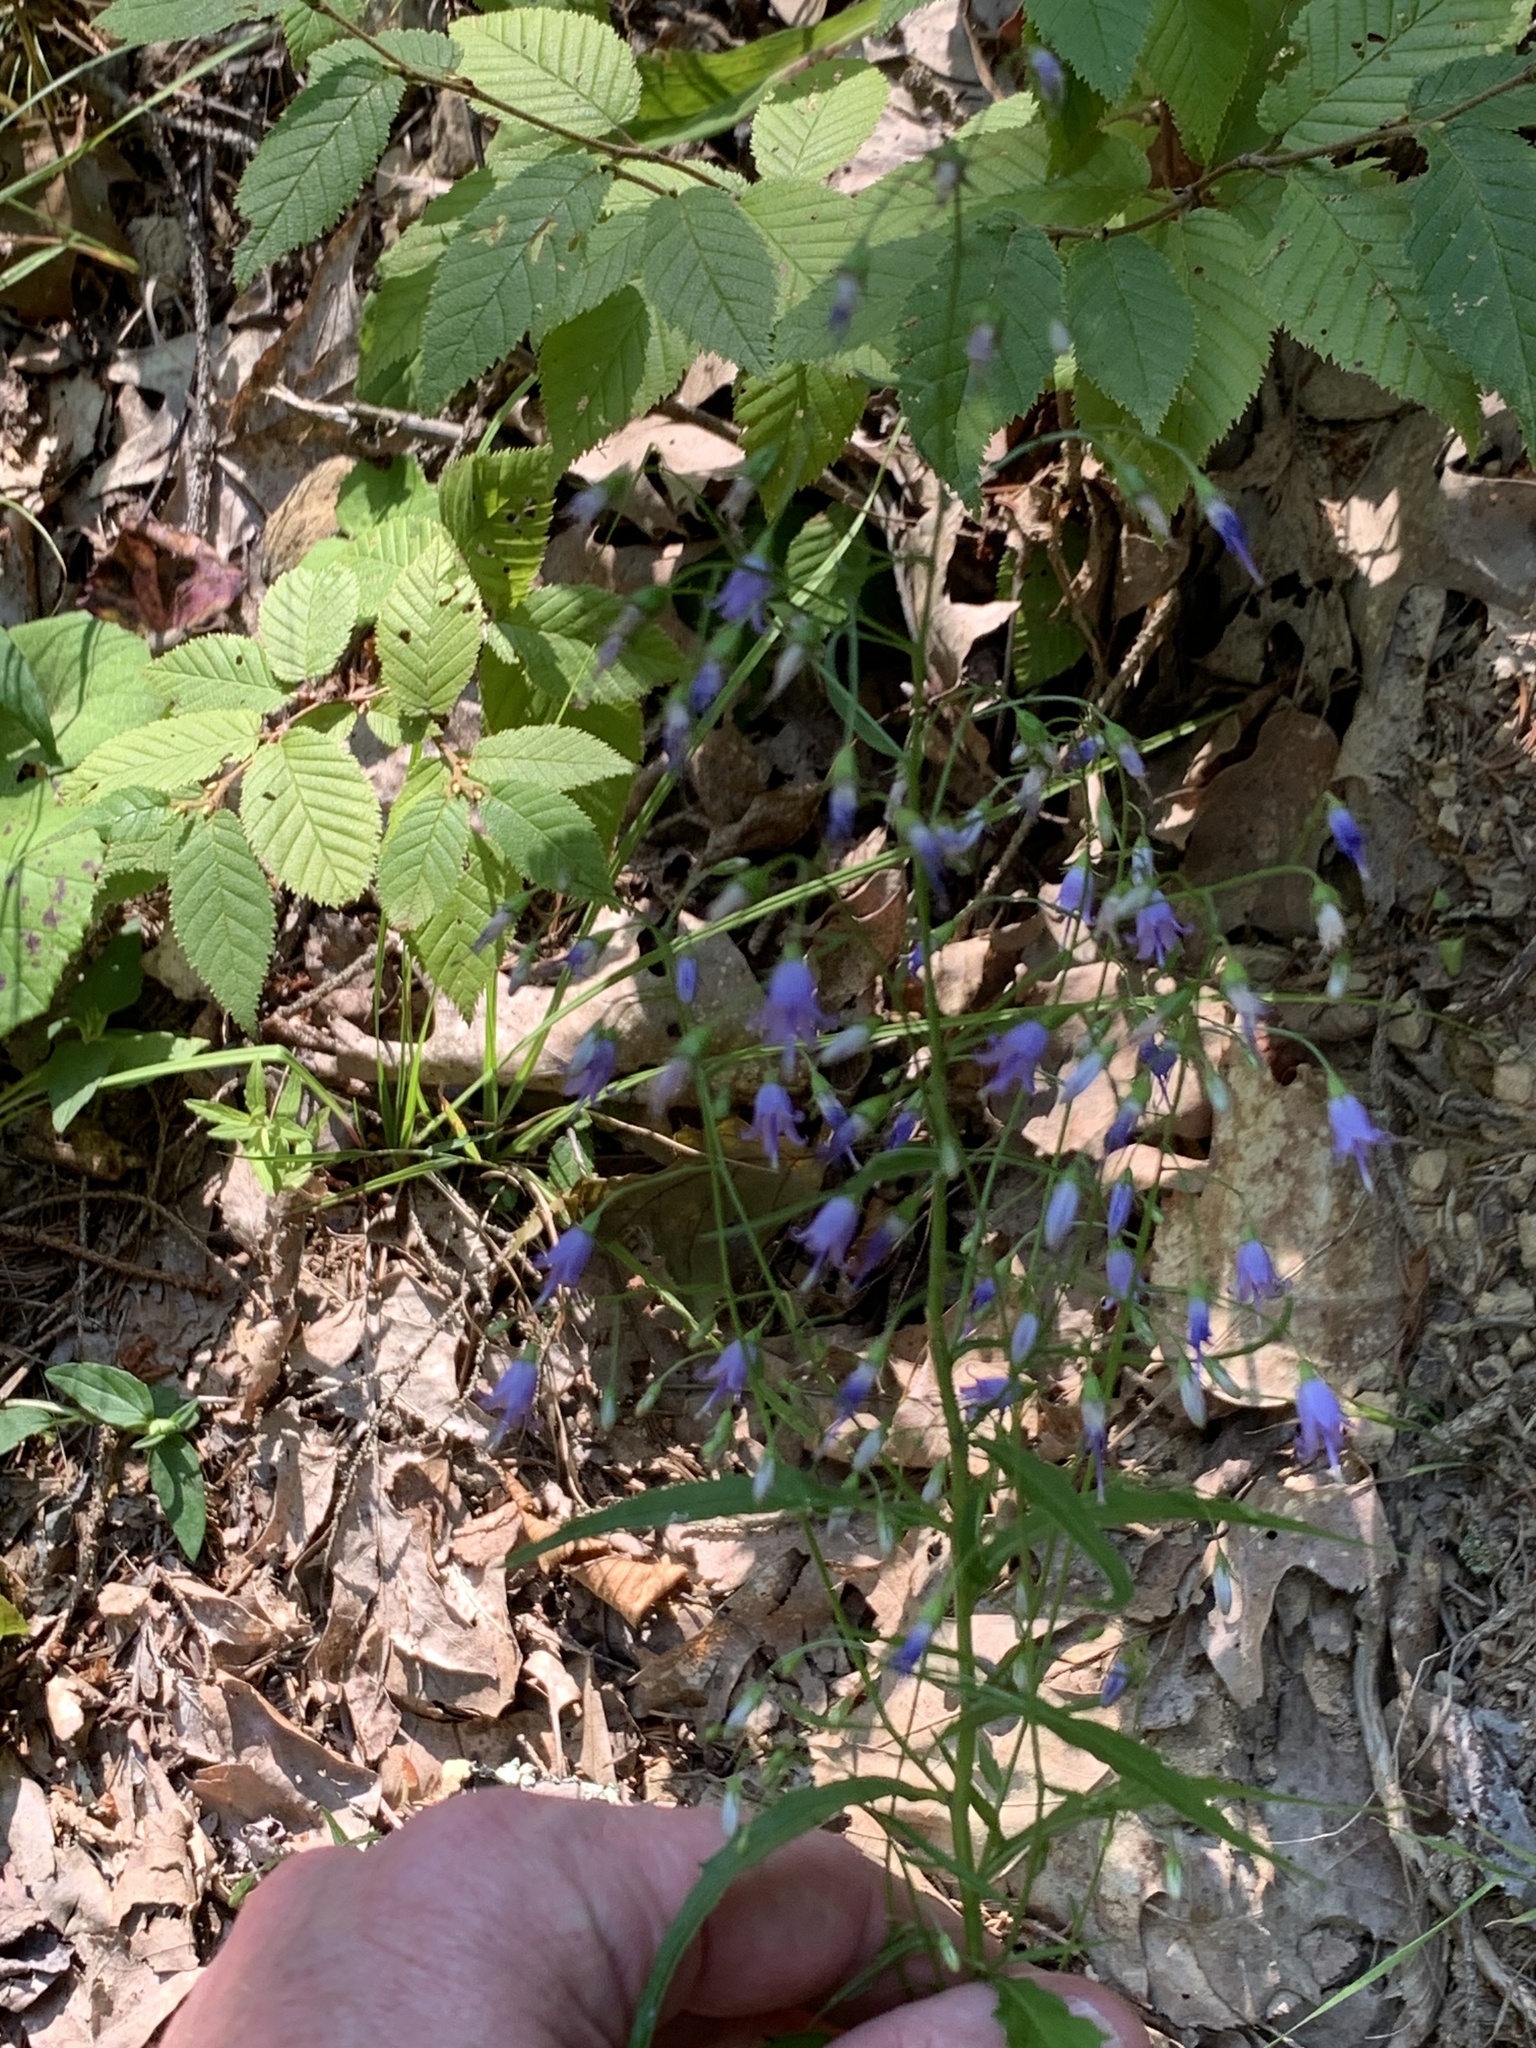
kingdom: Plantae
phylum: Tracheophyta
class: Magnoliopsida
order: Asterales
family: Campanulaceae
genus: Campanula
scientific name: Campanula divaricata
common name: Appalachian bellflower
